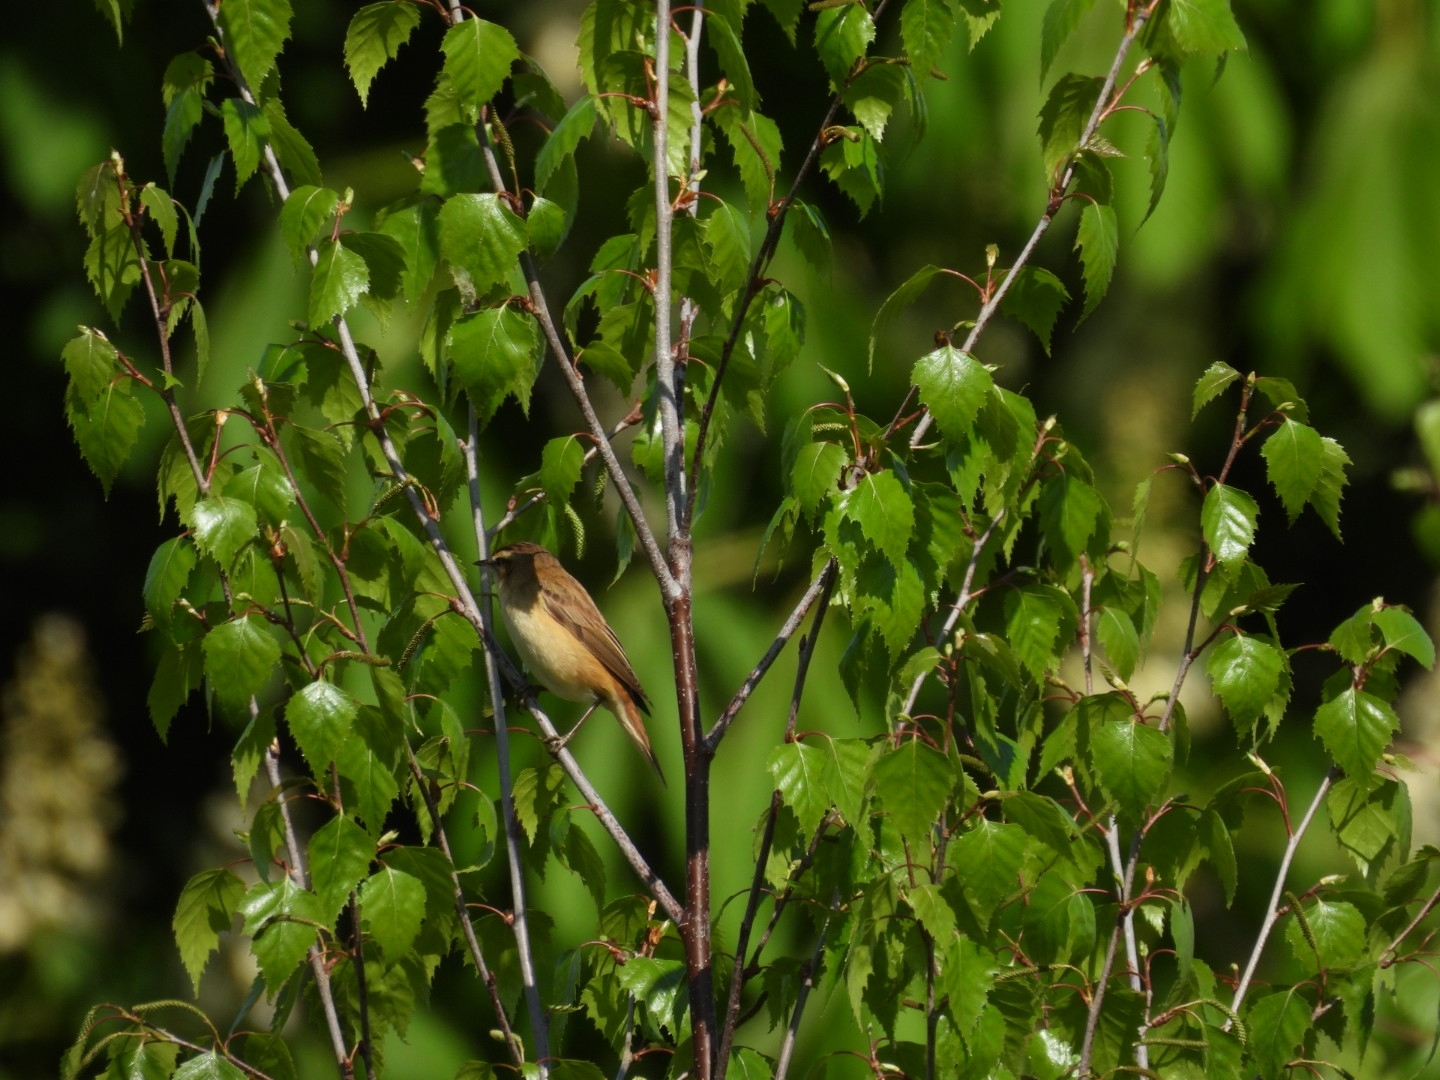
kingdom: Animalia
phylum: Chordata
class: Aves
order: Passeriformes
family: Acrocephalidae
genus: Acrocephalus
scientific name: Acrocephalus schoenobaenus
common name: Sedge warbler
